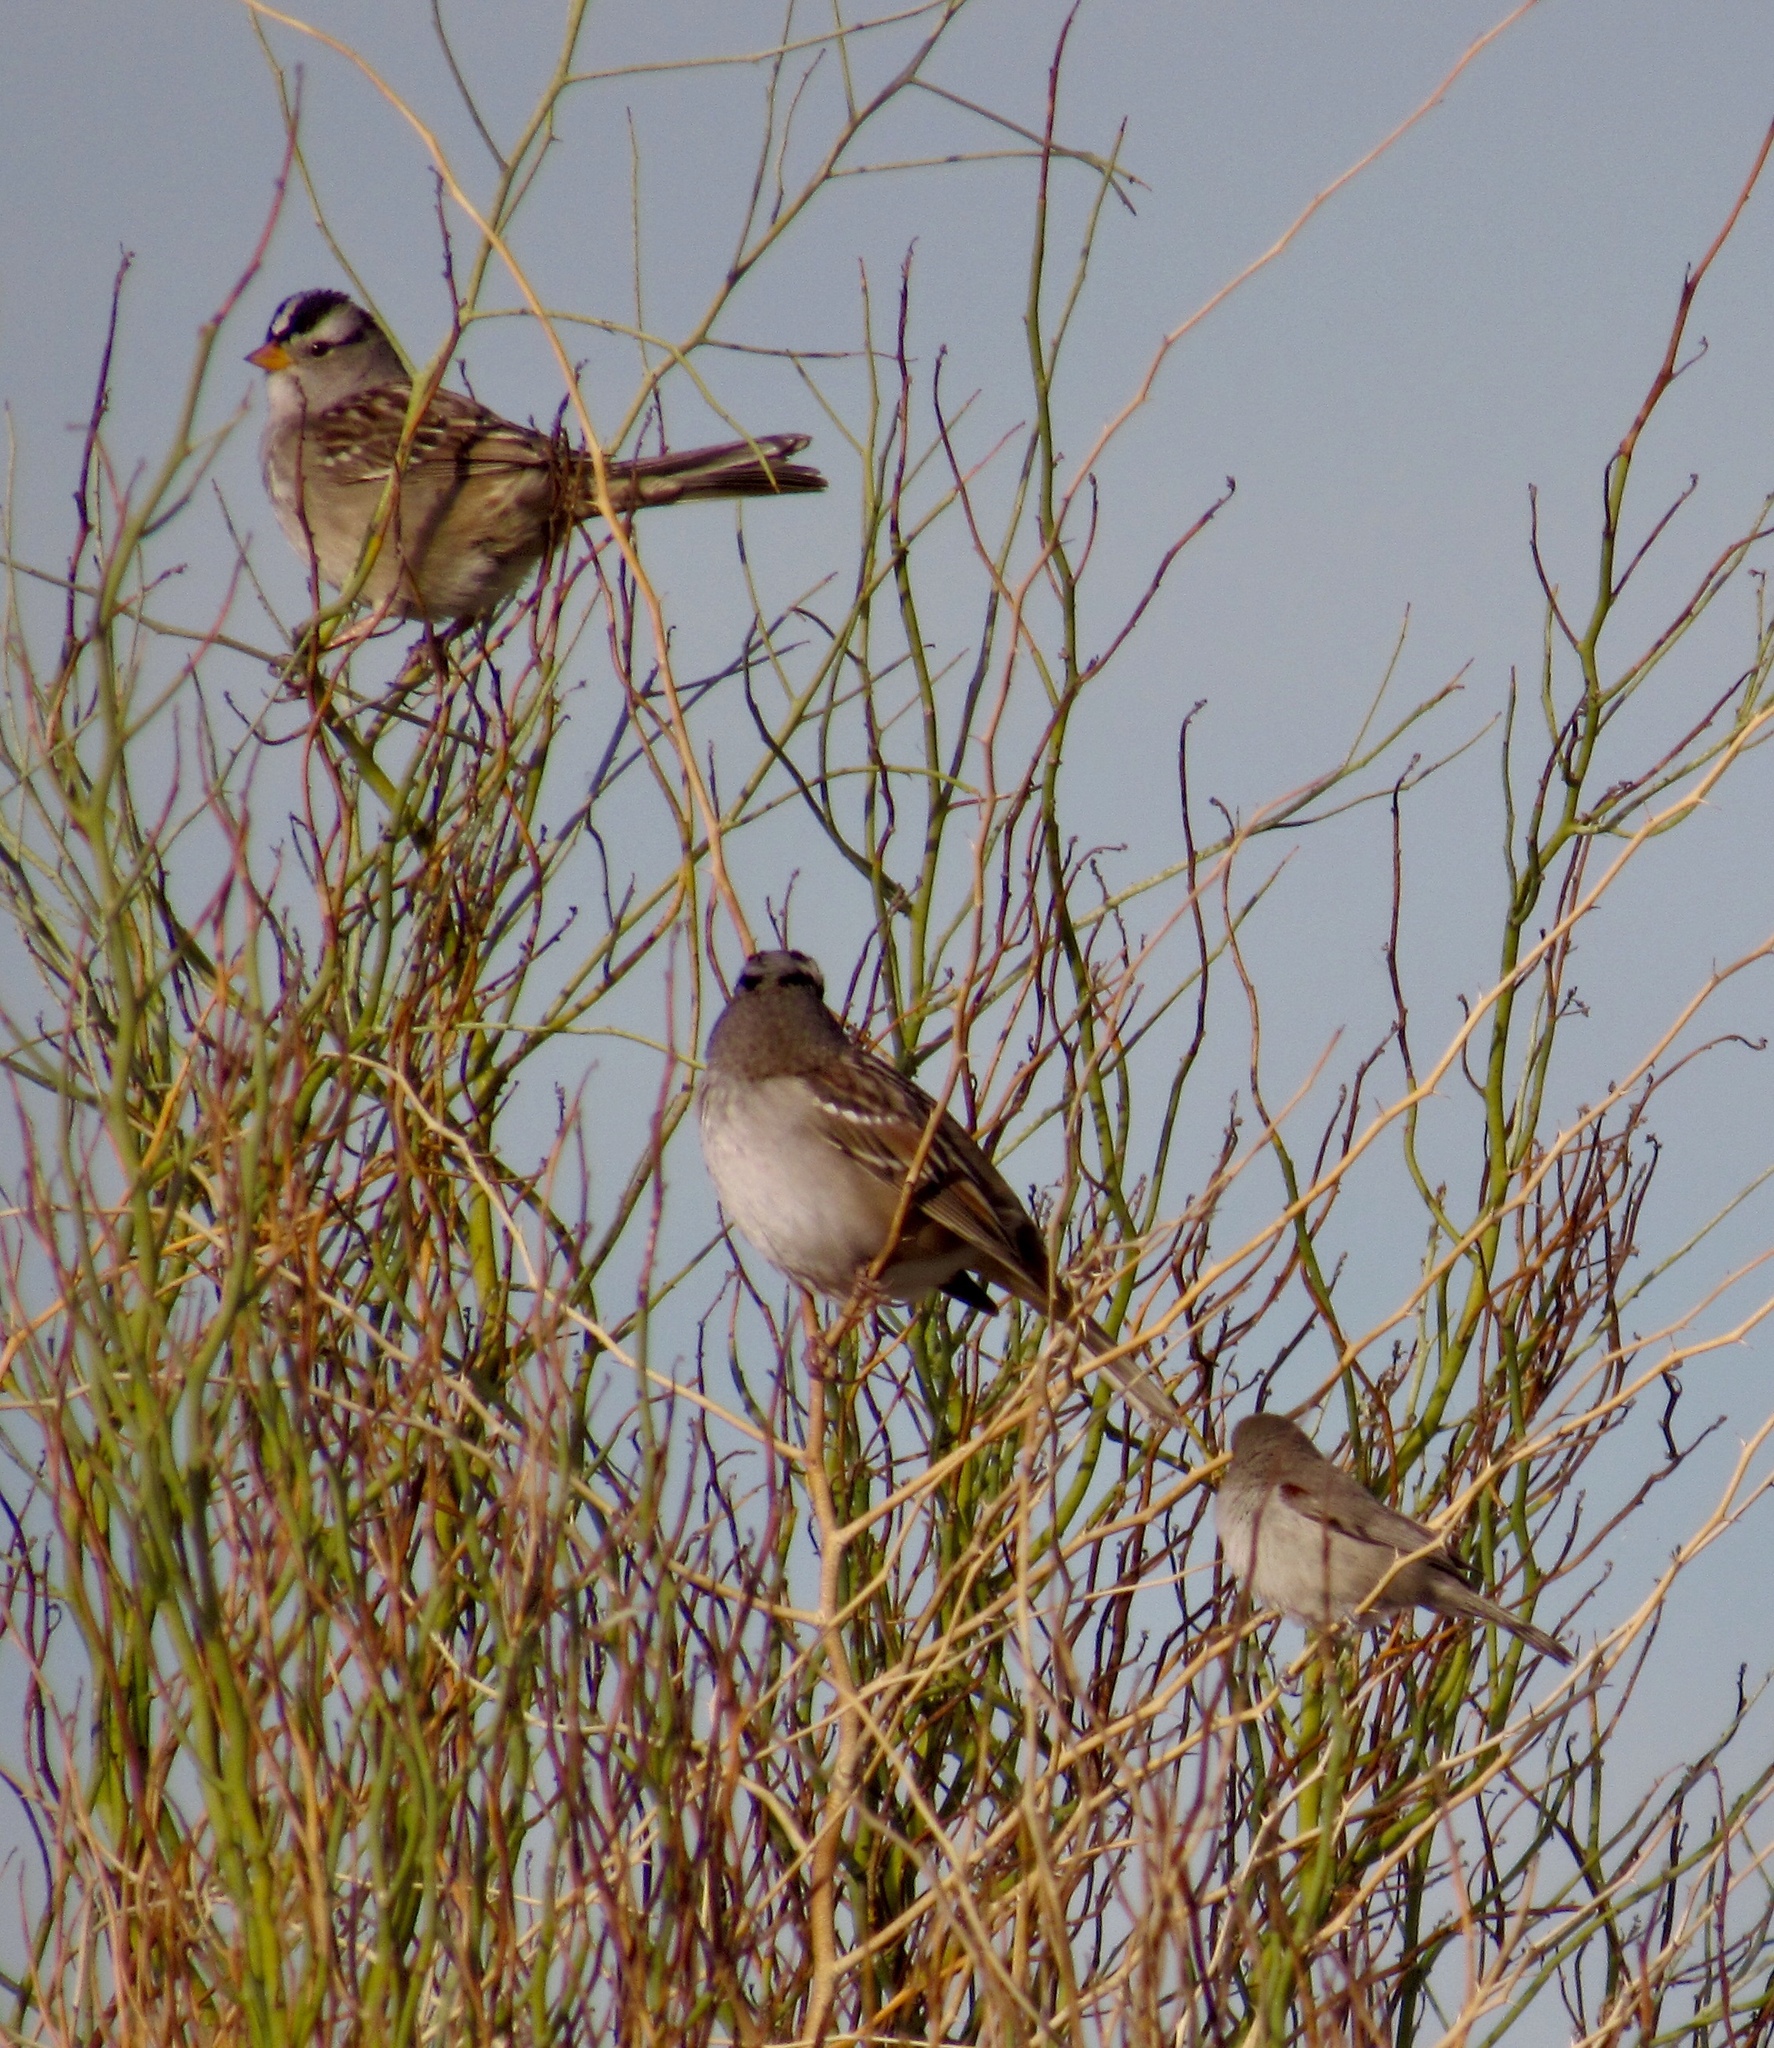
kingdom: Animalia
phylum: Chordata
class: Aves
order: Passeriformes
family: Passerellidae
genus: Zonotrichia
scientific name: Zonotrichia leucophrys
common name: White-crowned sparrow
